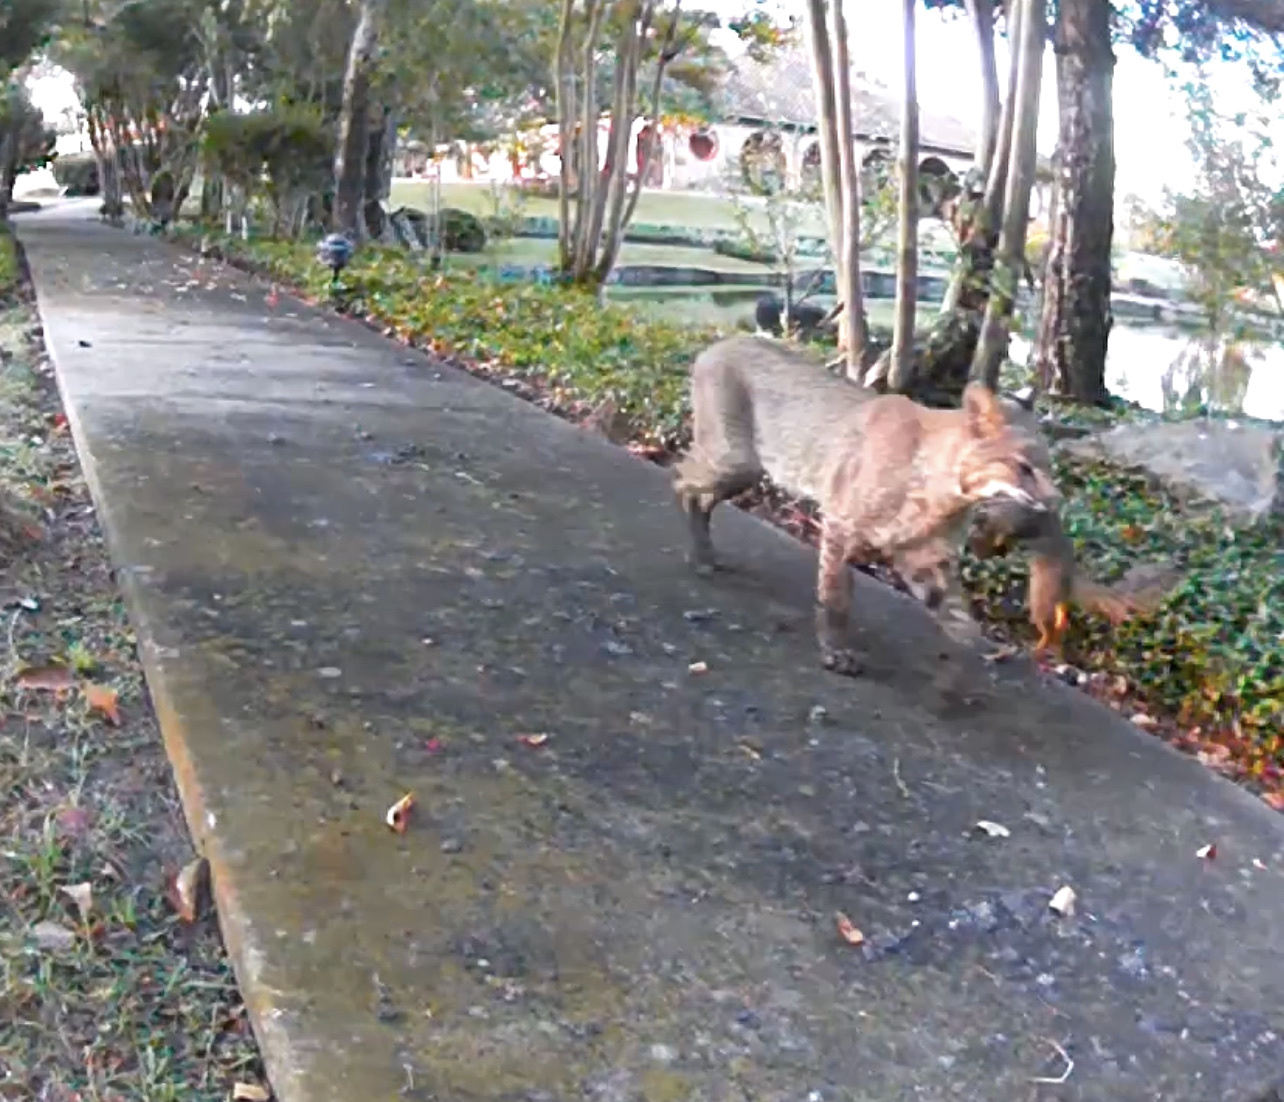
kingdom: Animalia
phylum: Chordata
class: Mammalia
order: Carnivora
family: Felidae
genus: Lynx
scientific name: Lynx rufus
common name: Bobcat
